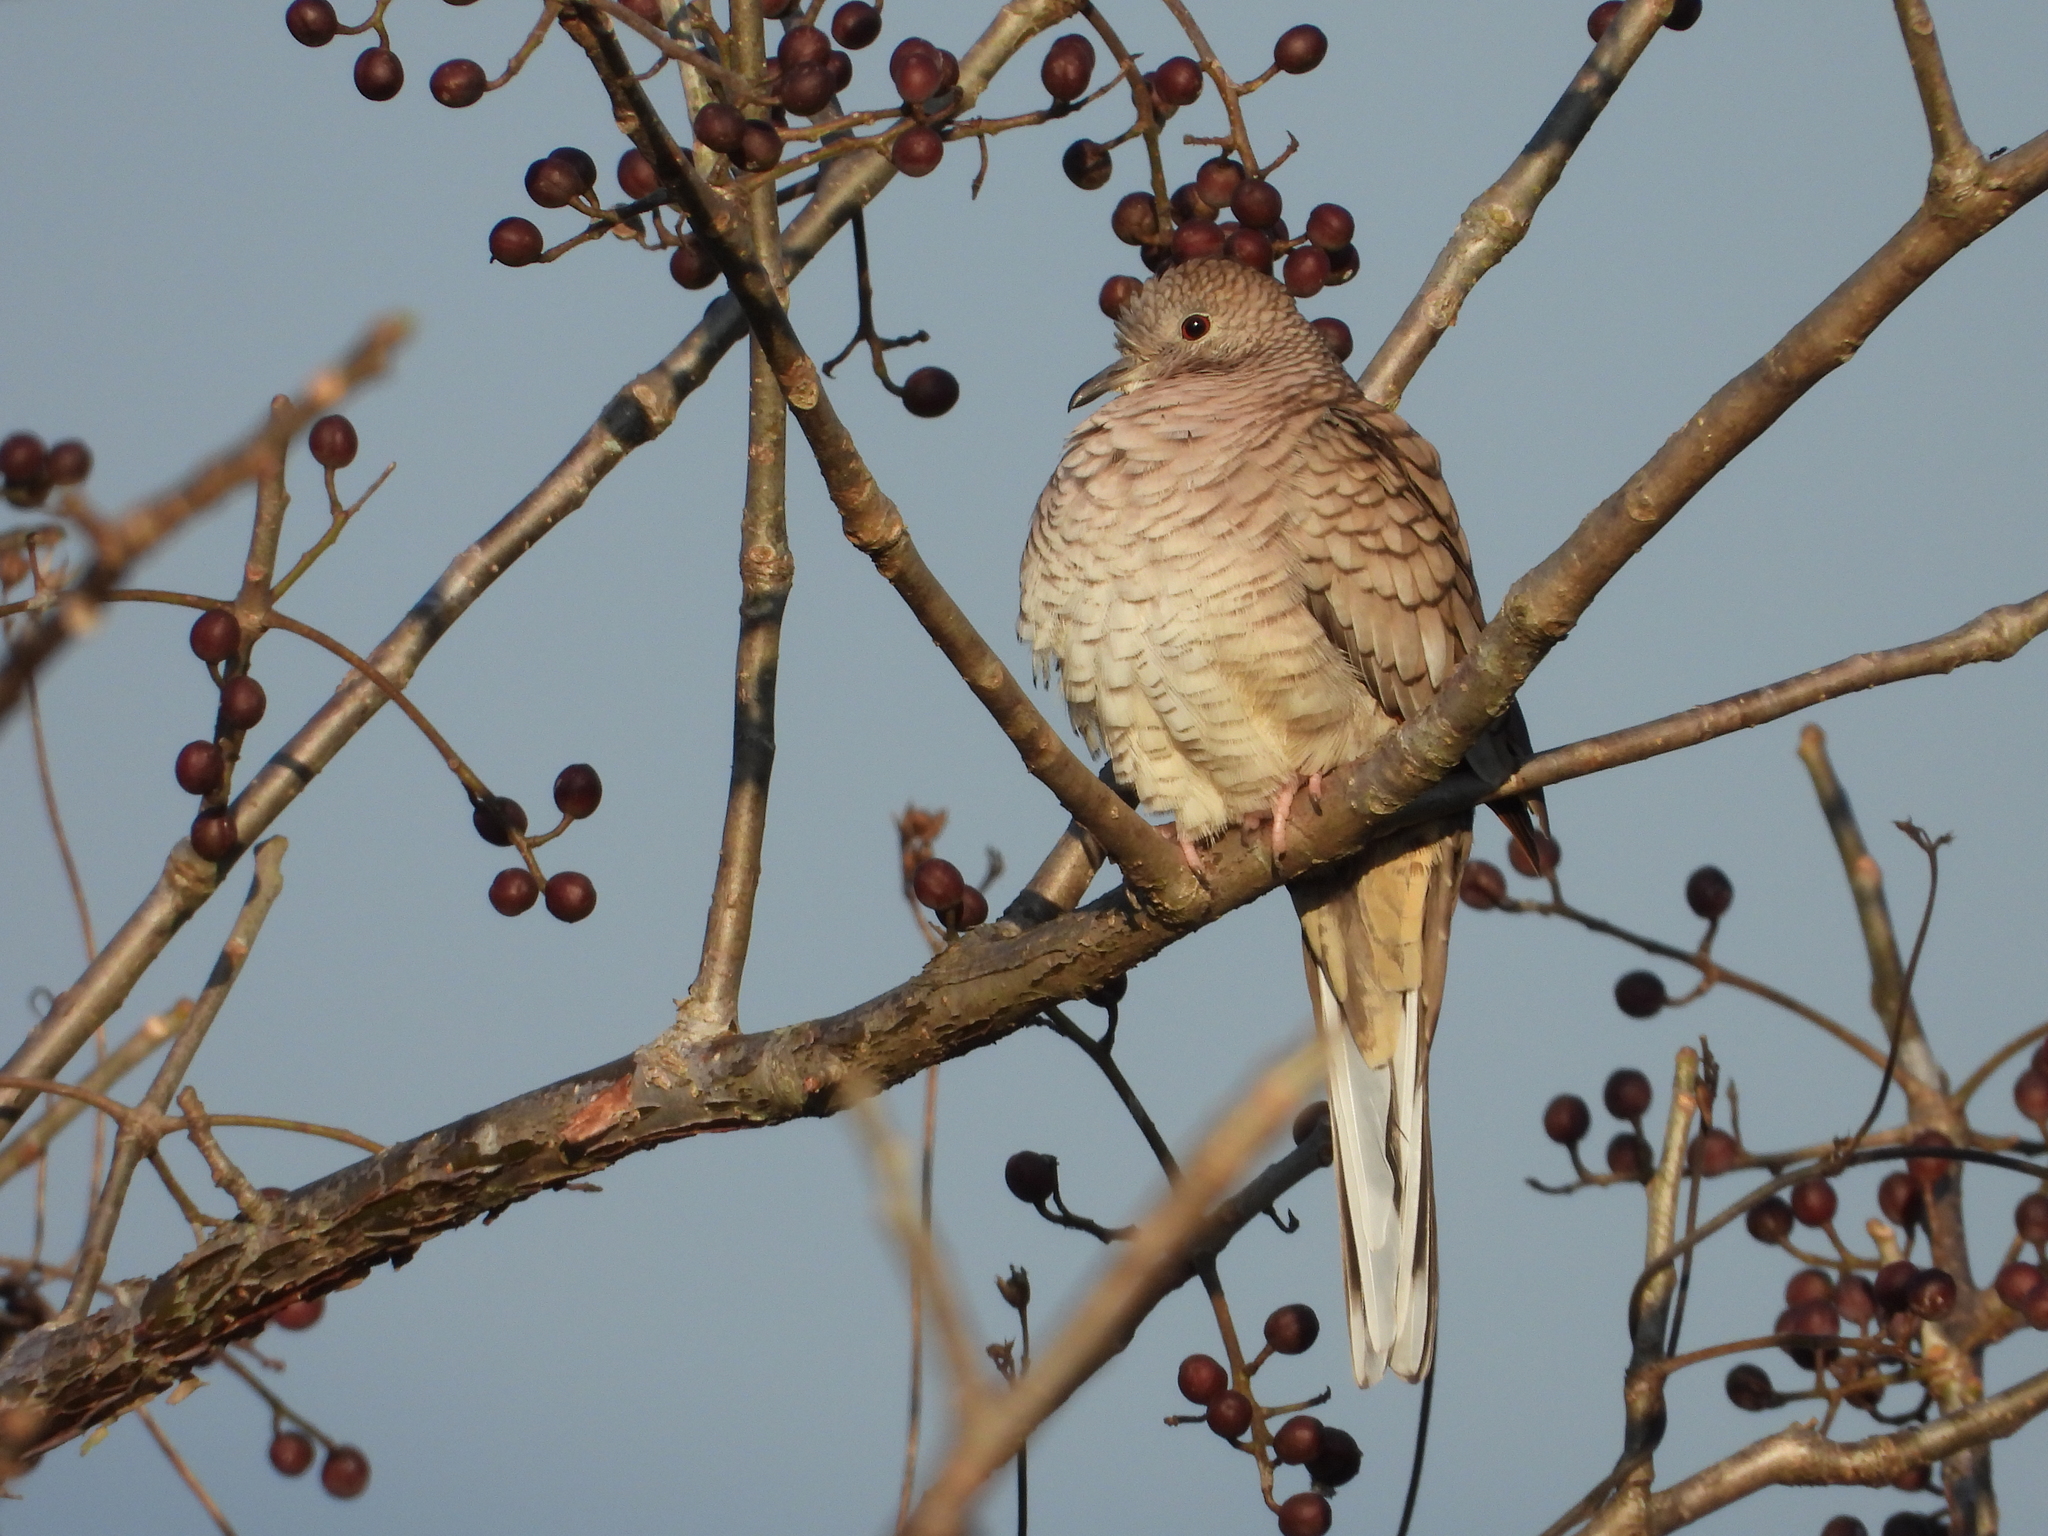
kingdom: Animalia
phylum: Chordata
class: Aves
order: Columbiformes
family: Columbidae
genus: Columbina
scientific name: Columbina inca
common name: Inca dove
